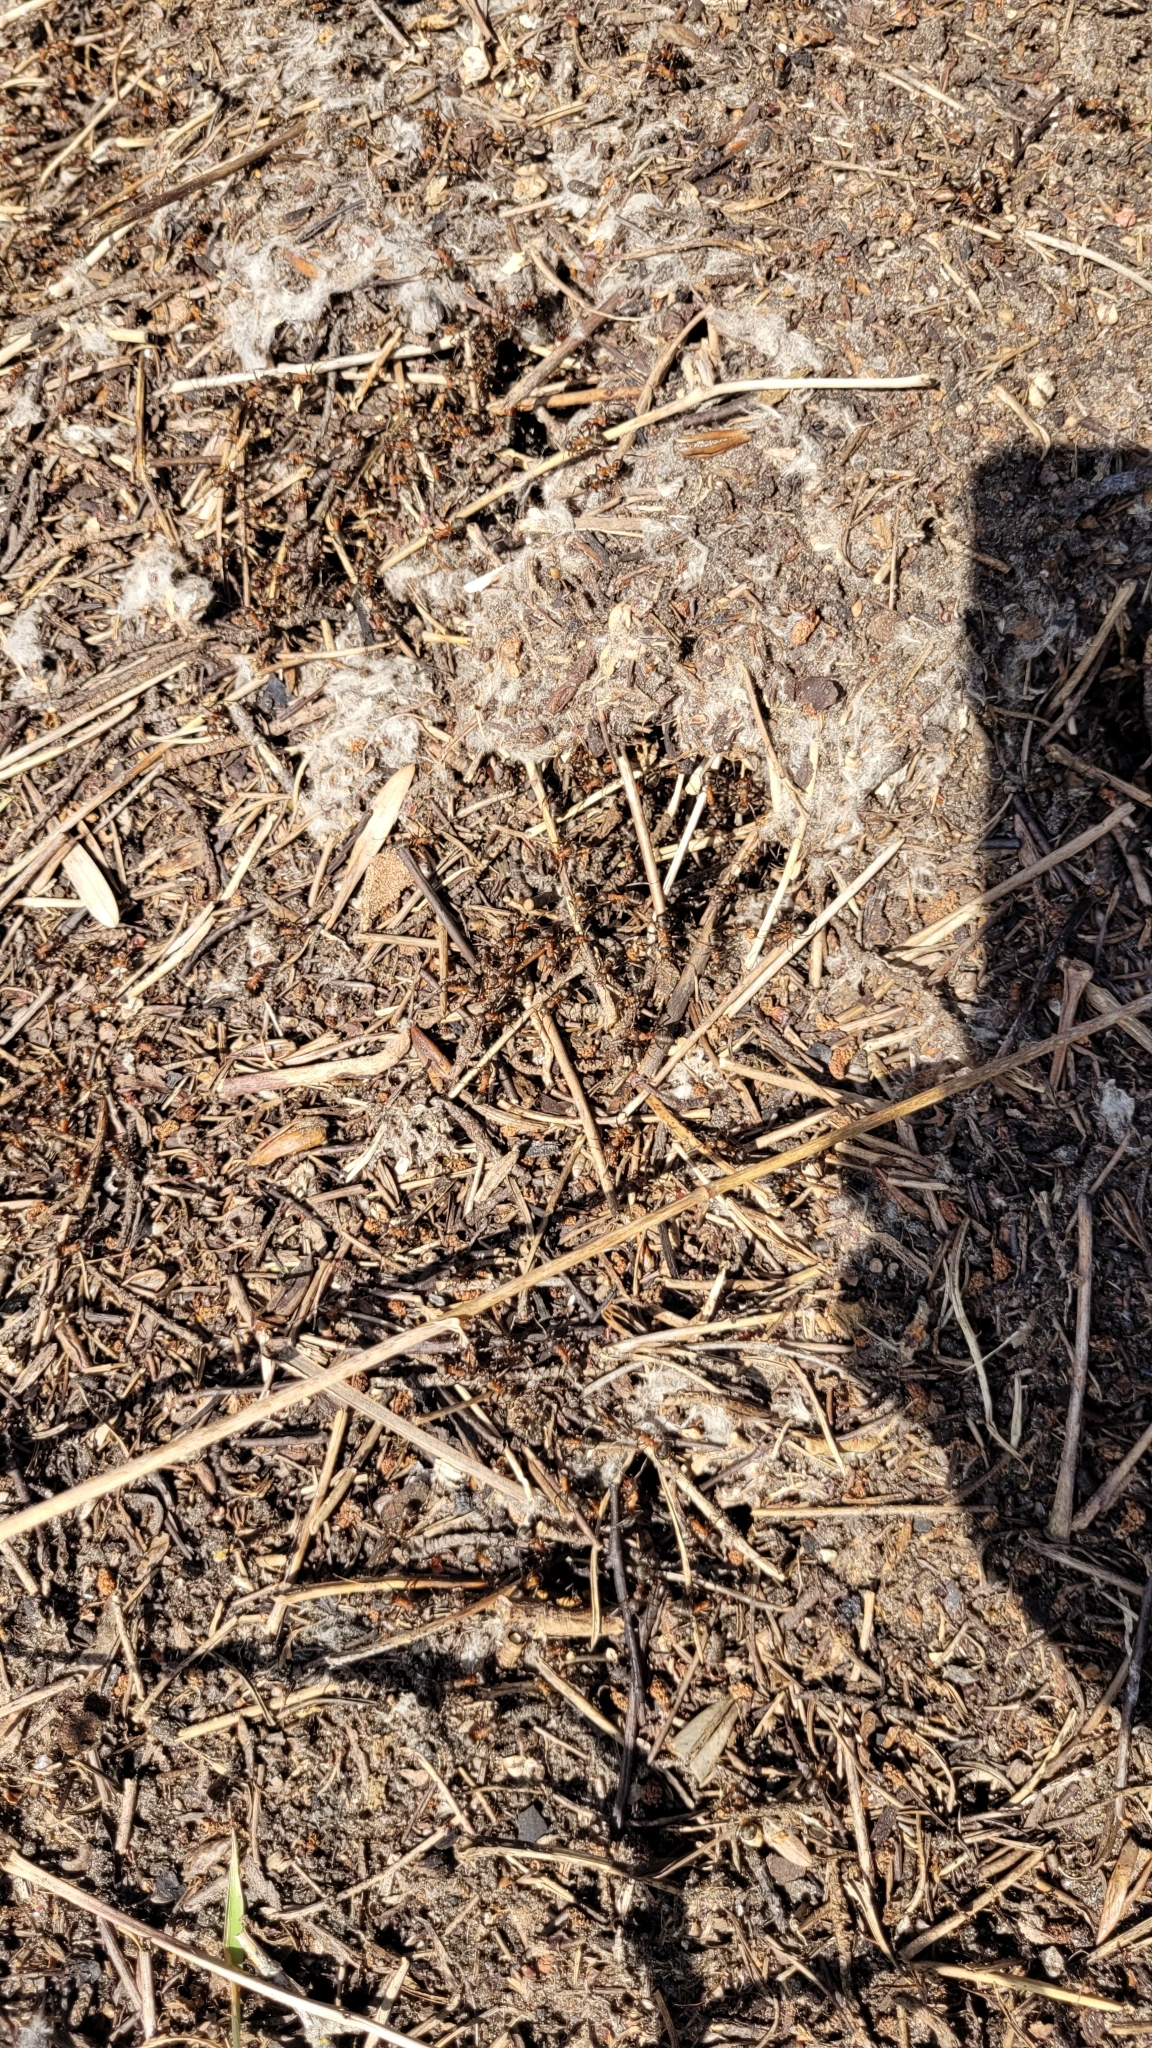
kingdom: Animalia
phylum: Arthropoda
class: Insecta
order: Hymenoptera
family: Formicidae
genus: Formica
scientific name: Formica rufa
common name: Red wood ant
